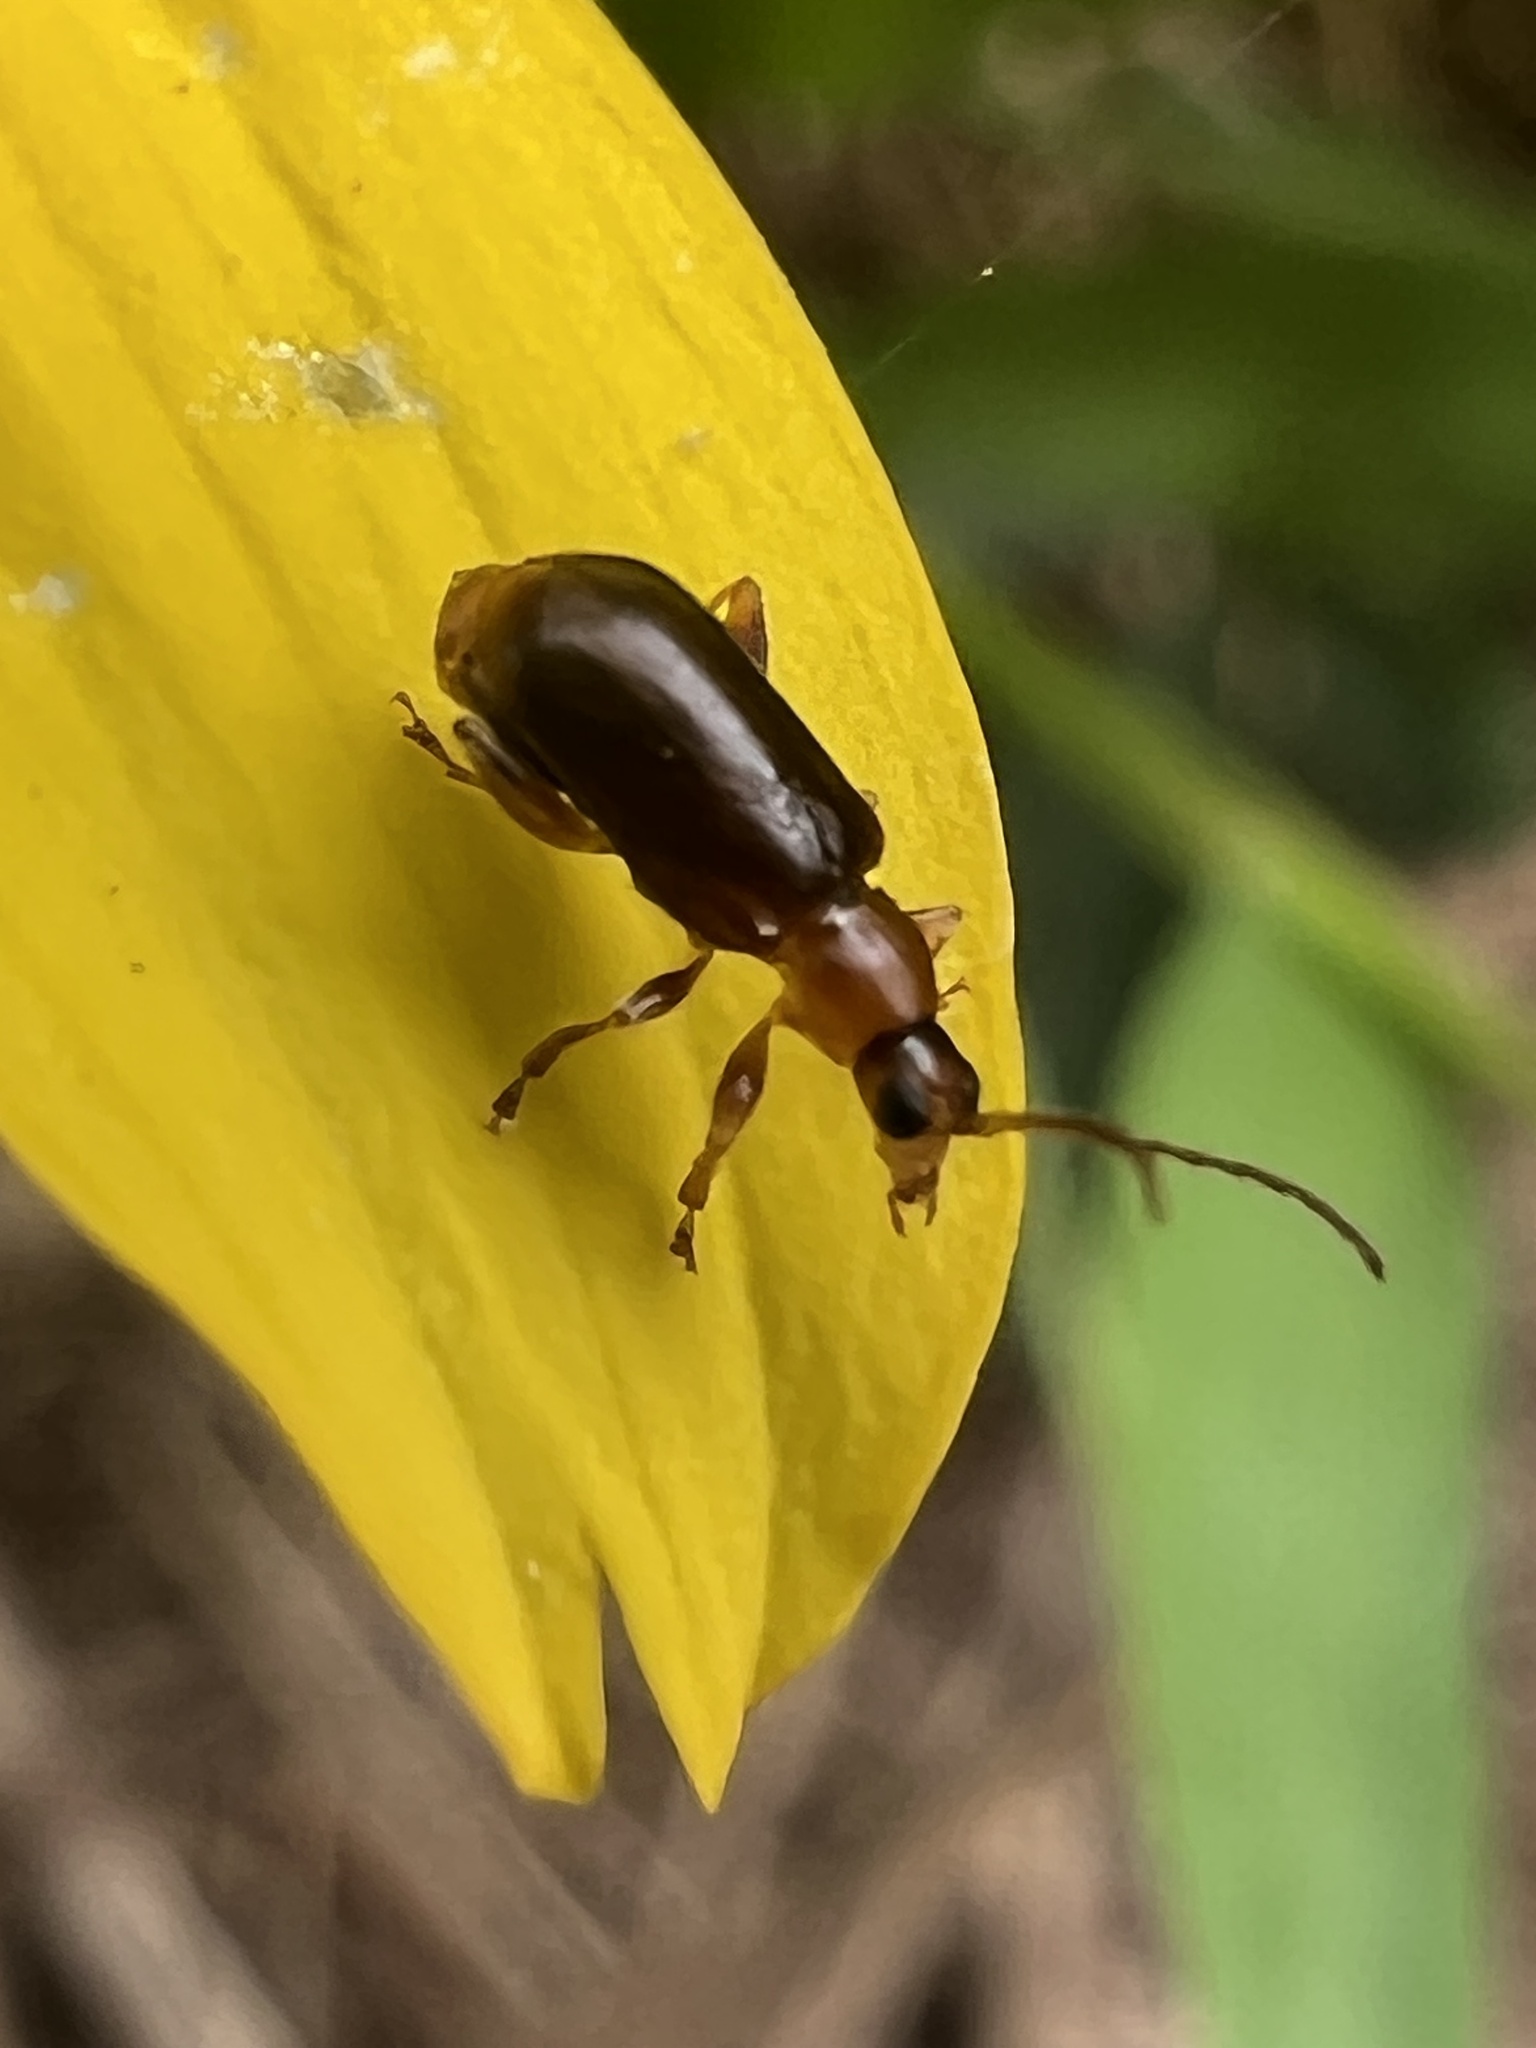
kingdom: Animalia
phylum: Arthropoda
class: Insecta
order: Coleoptera
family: Chrysomelidae
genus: Luperaltica
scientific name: Luperaltica nigripalpis
